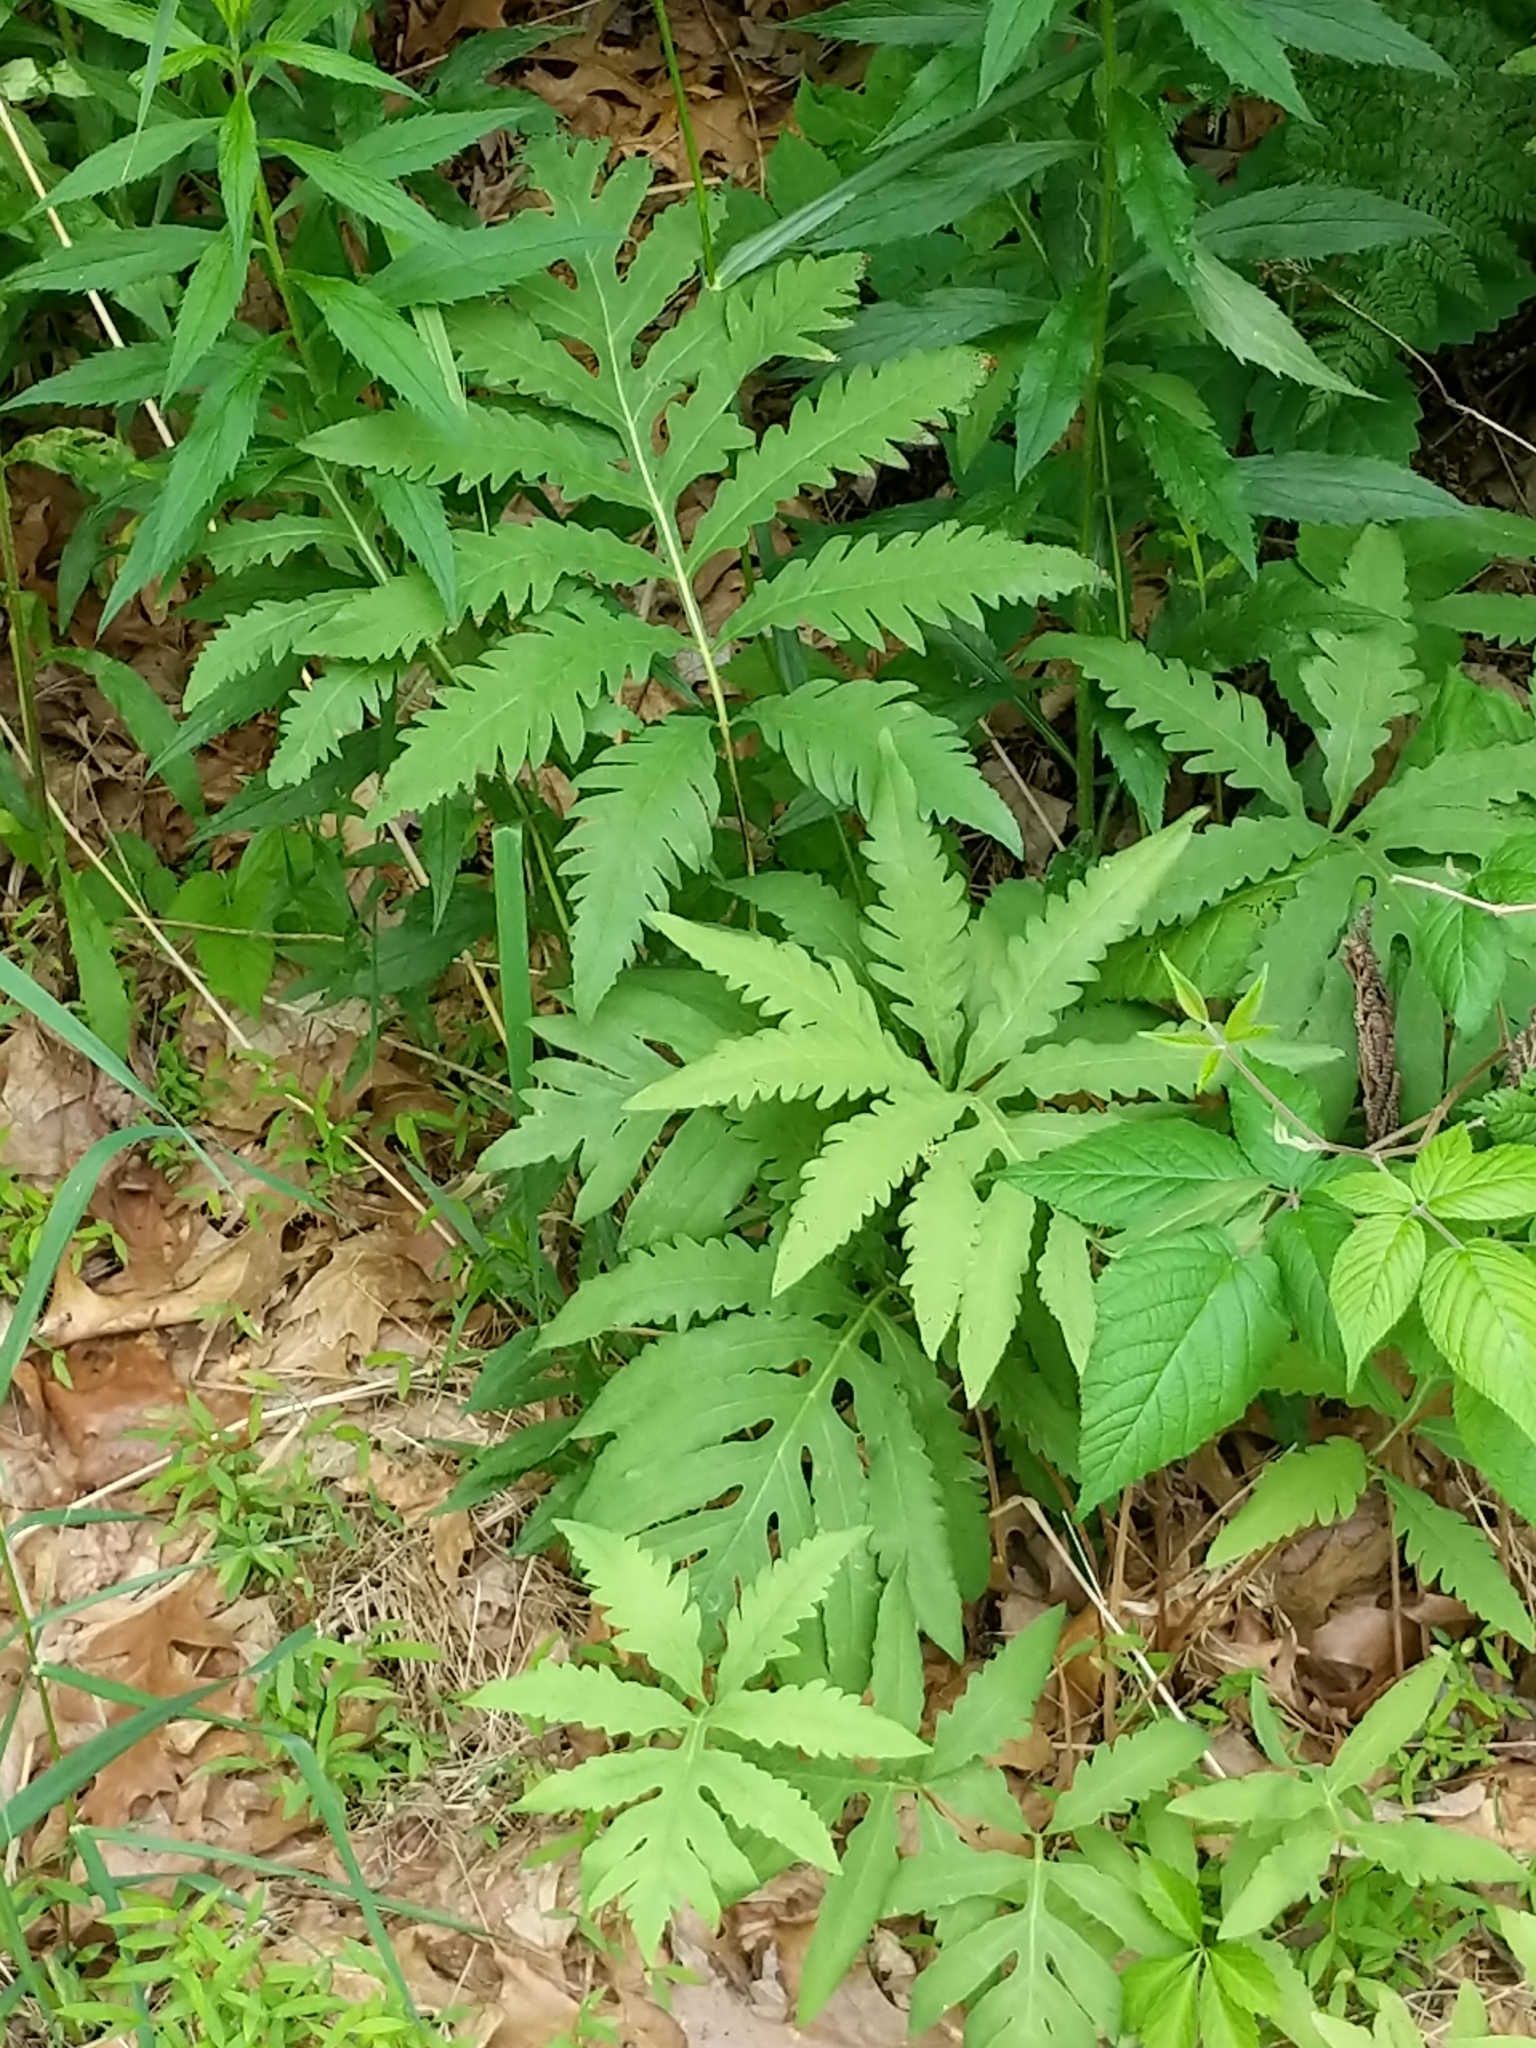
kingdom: Plantae
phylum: Tracheophyta
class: Polypodiopsida
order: Polypodiales
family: Onocleaceae
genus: Onoclea
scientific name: Onoclea sensibilis
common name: Sensitive fern
